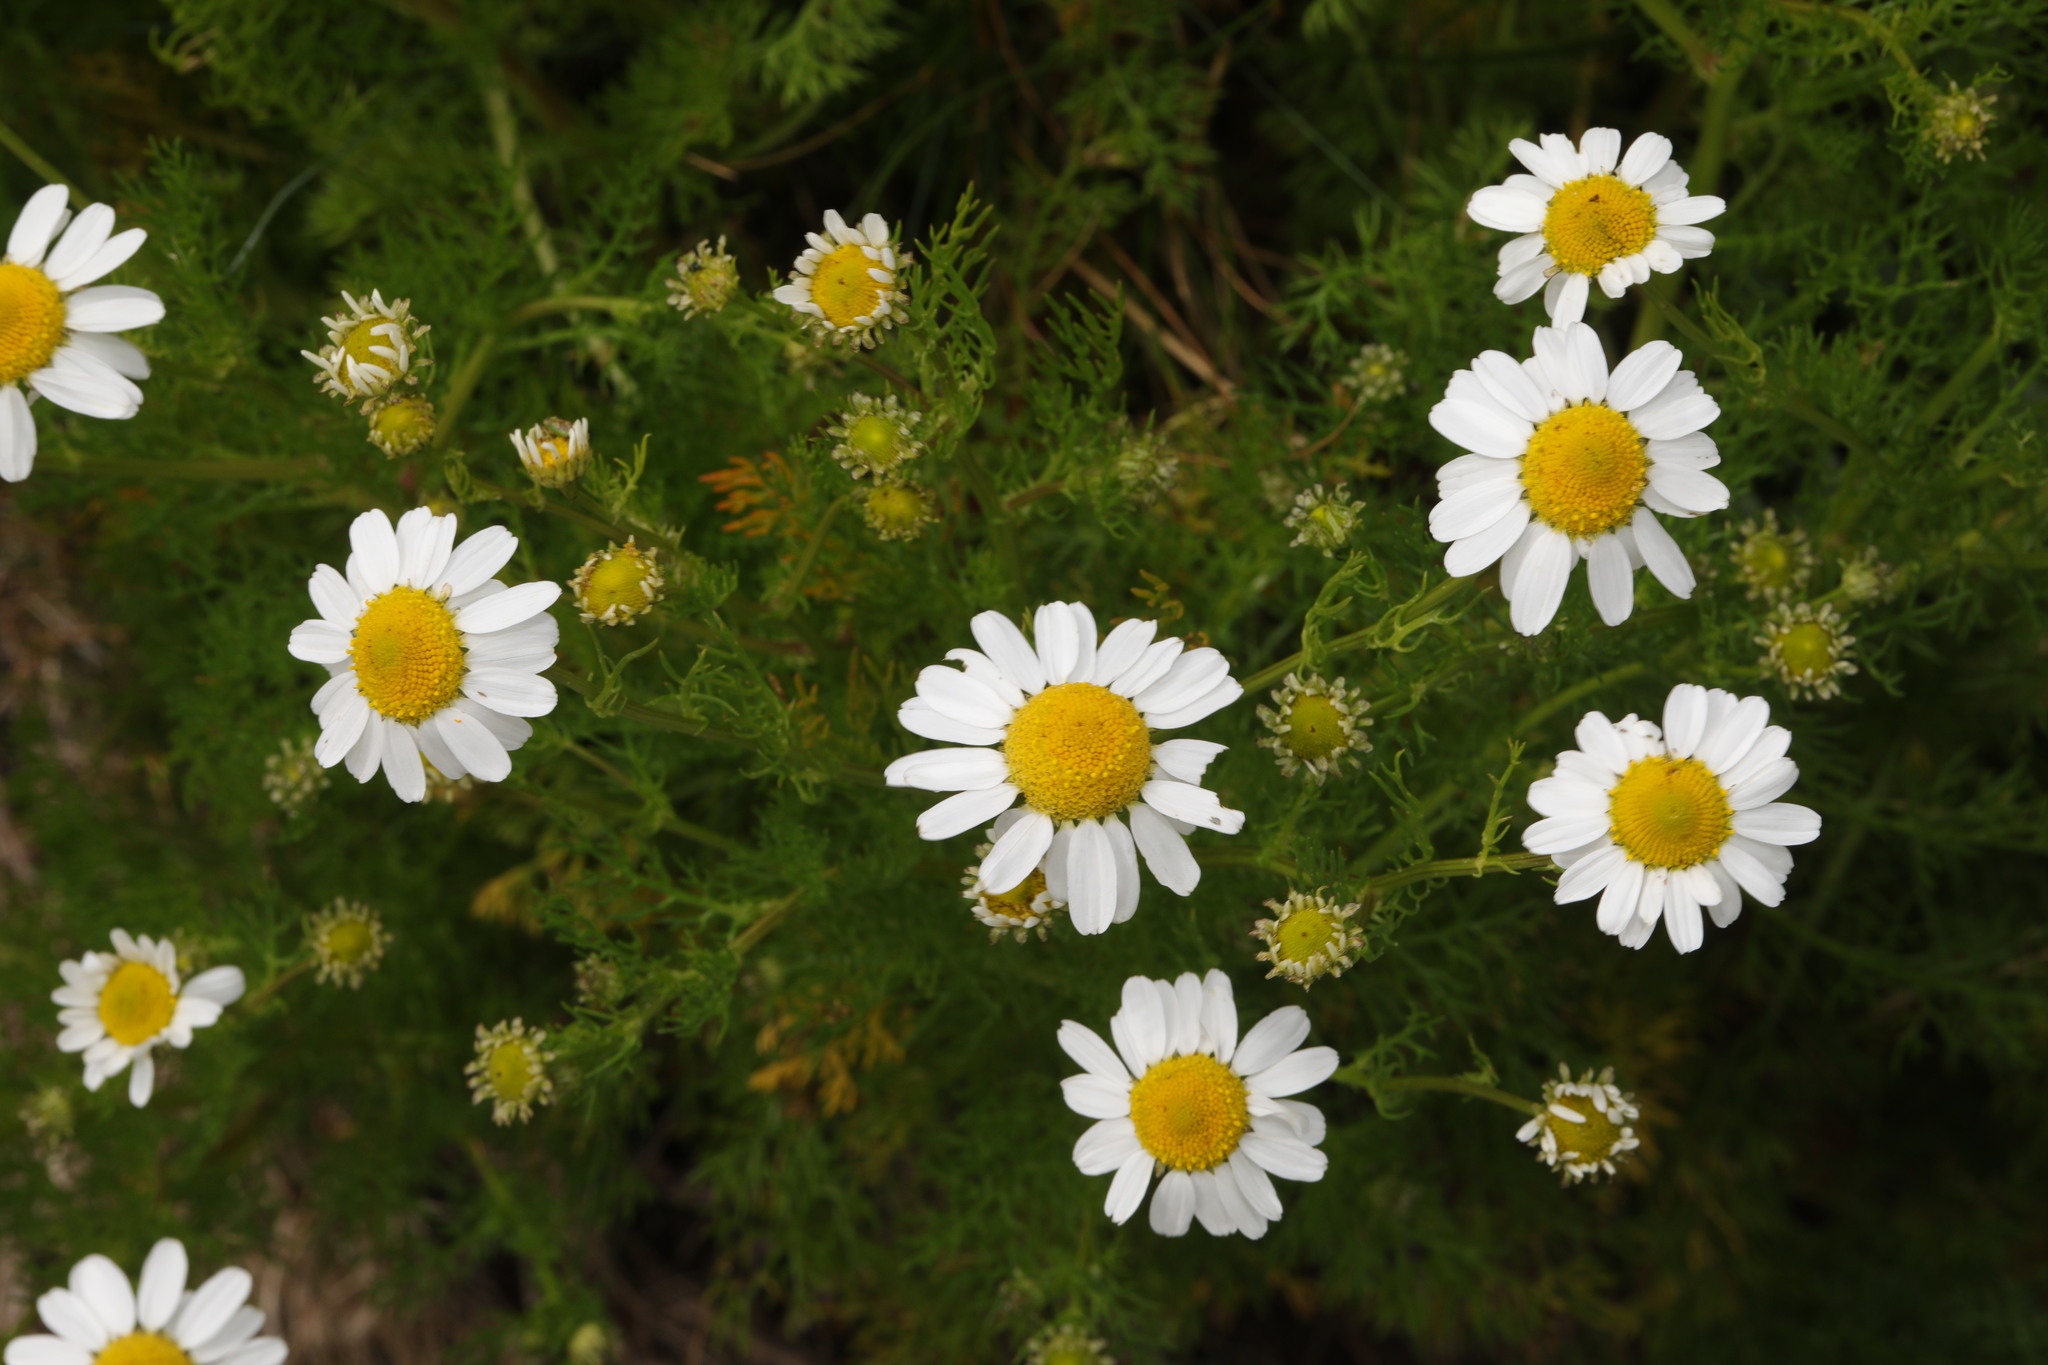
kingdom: Plantae
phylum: Tracheophyta
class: Magnoliopsida
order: Asterales
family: Asteraceae
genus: Tripleurospermum
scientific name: Tripleurospermum maritimum
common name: Sea mayweed
